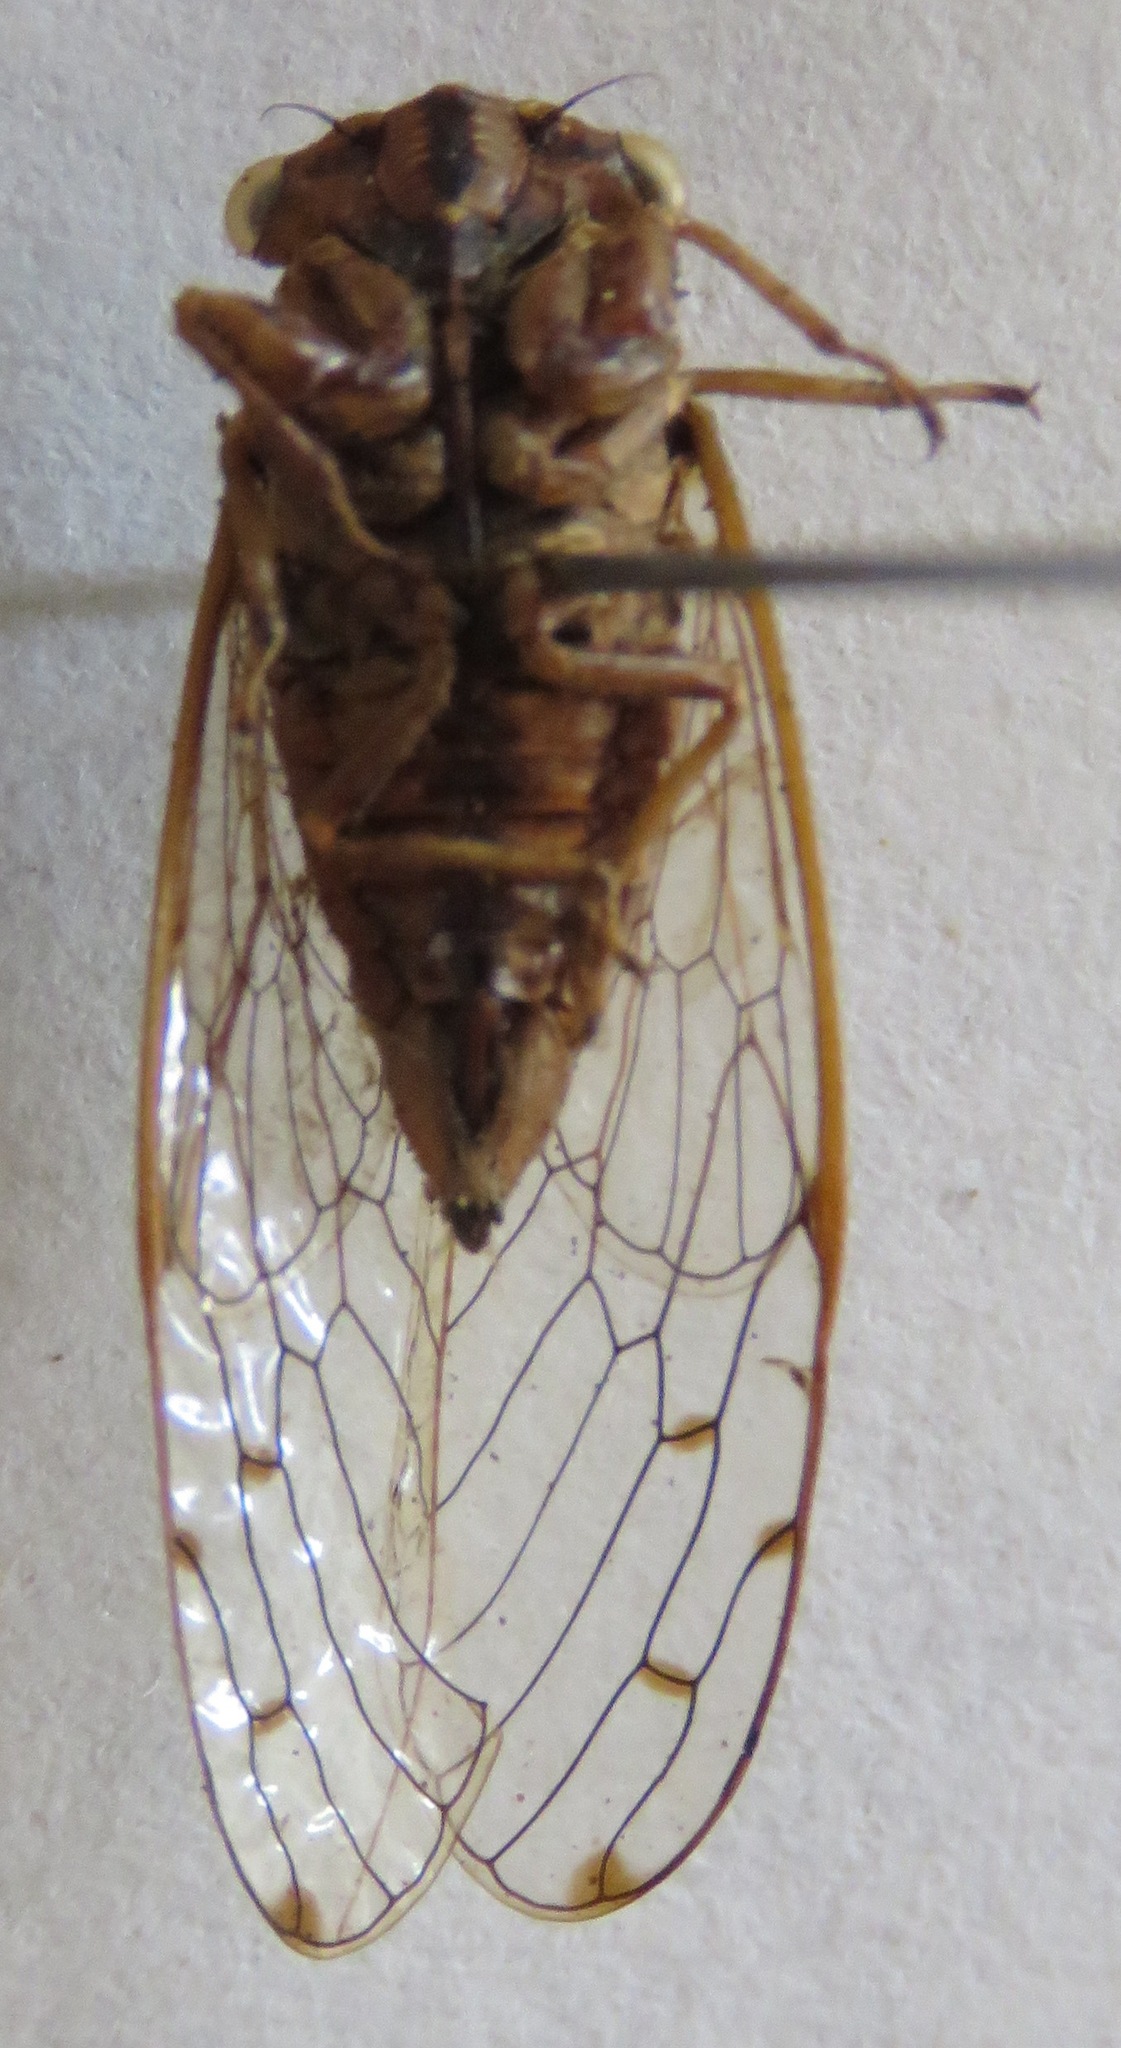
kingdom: Animalia
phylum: Arthropoda
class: Insecta
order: Hemiptera
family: Cicadidae
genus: Pacarina
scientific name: Pacarina schumanni
